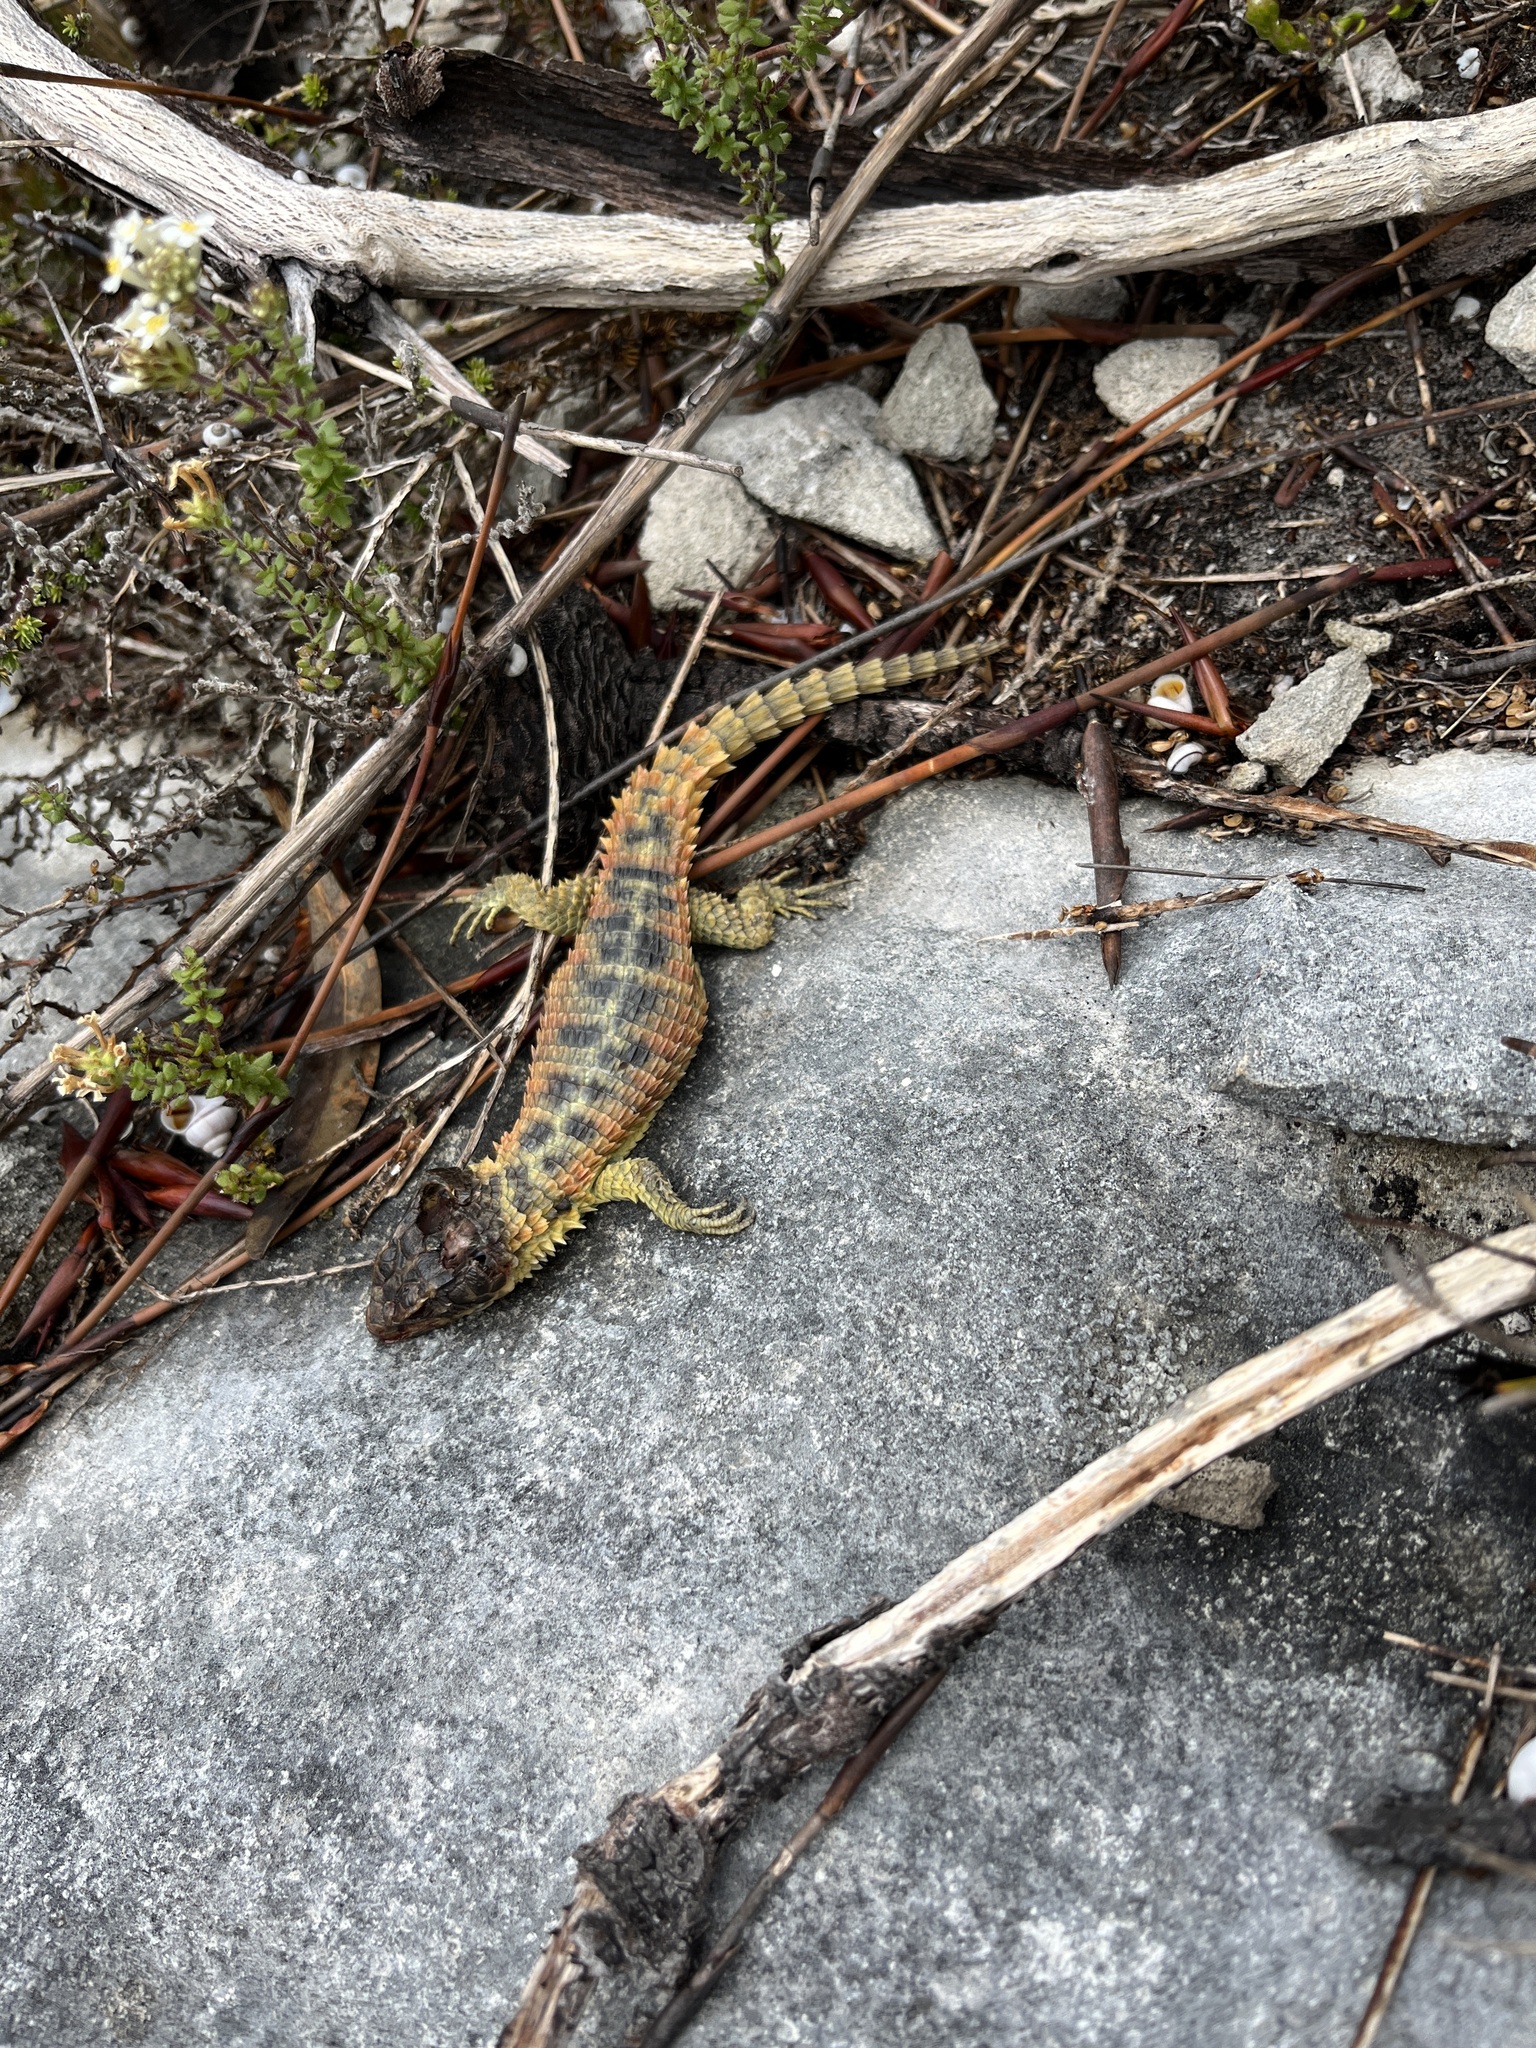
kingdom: Animalia
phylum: Chordata
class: Squamata
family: Cordylidae
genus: Cordylus
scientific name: Cordylus cordylus
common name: Cape girdled lizard
